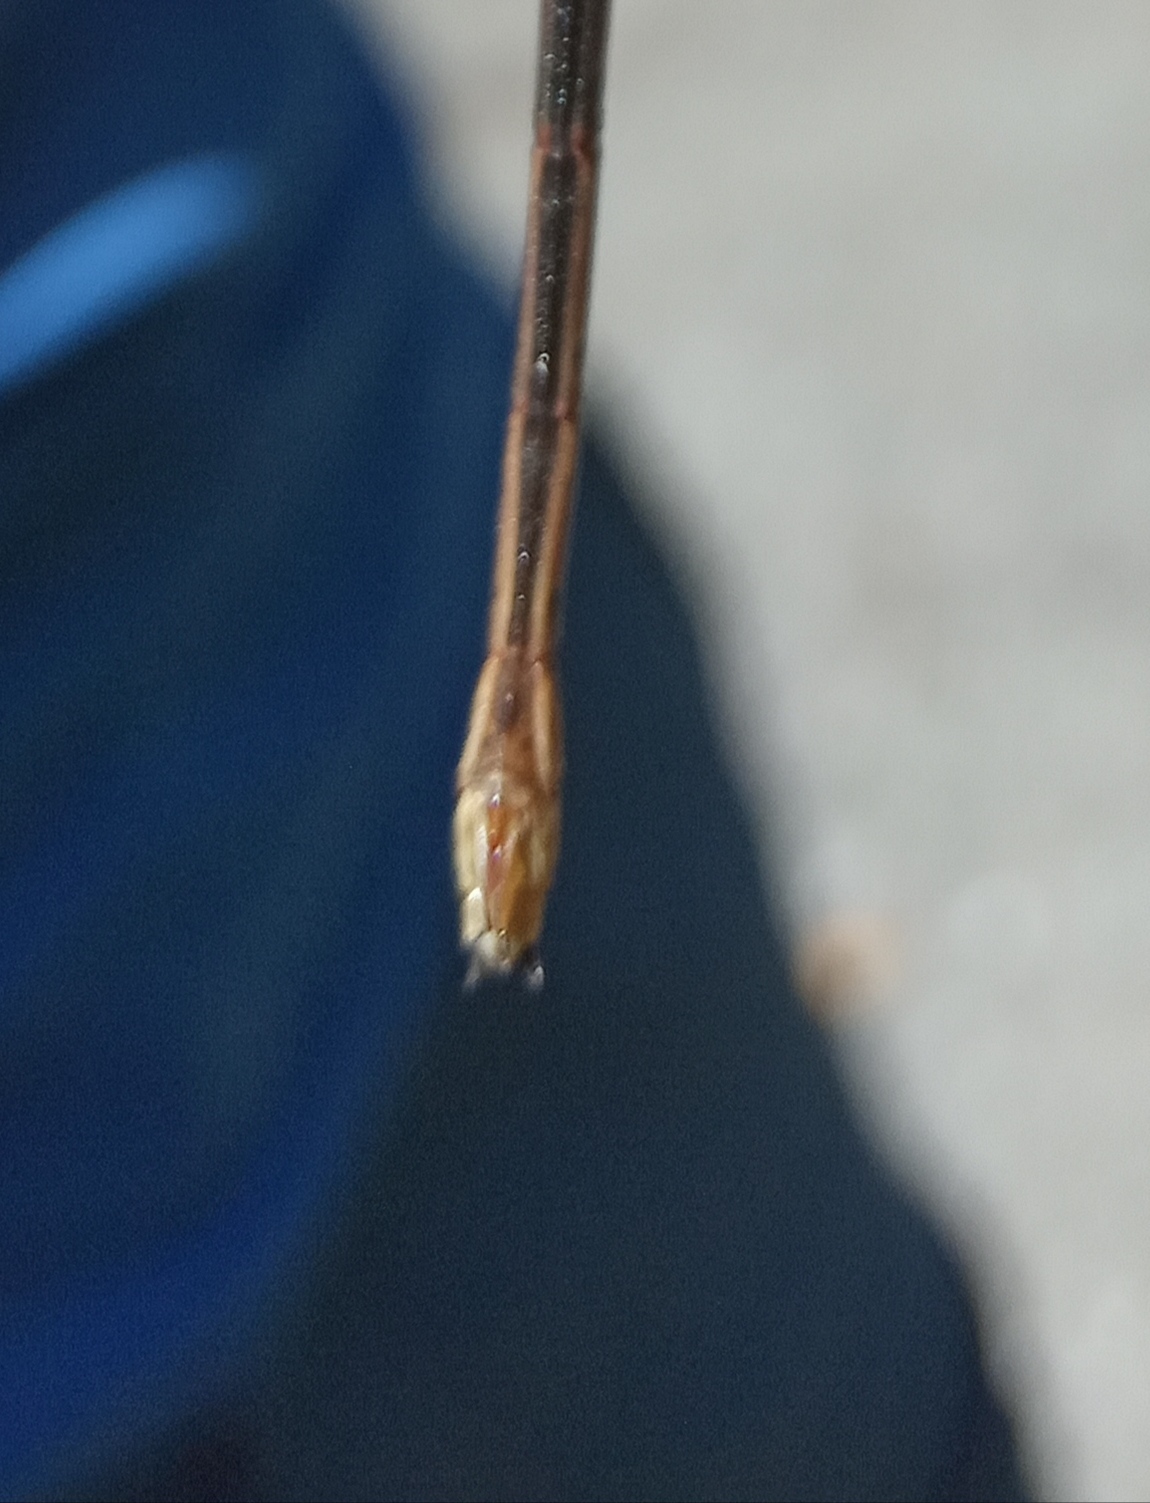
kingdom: Animalia
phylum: Arthropoda
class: Insecta
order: Odonata
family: Calopterygidae
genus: Calopteryx
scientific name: Calopteryx virgo
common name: Beautiful demoiselle
